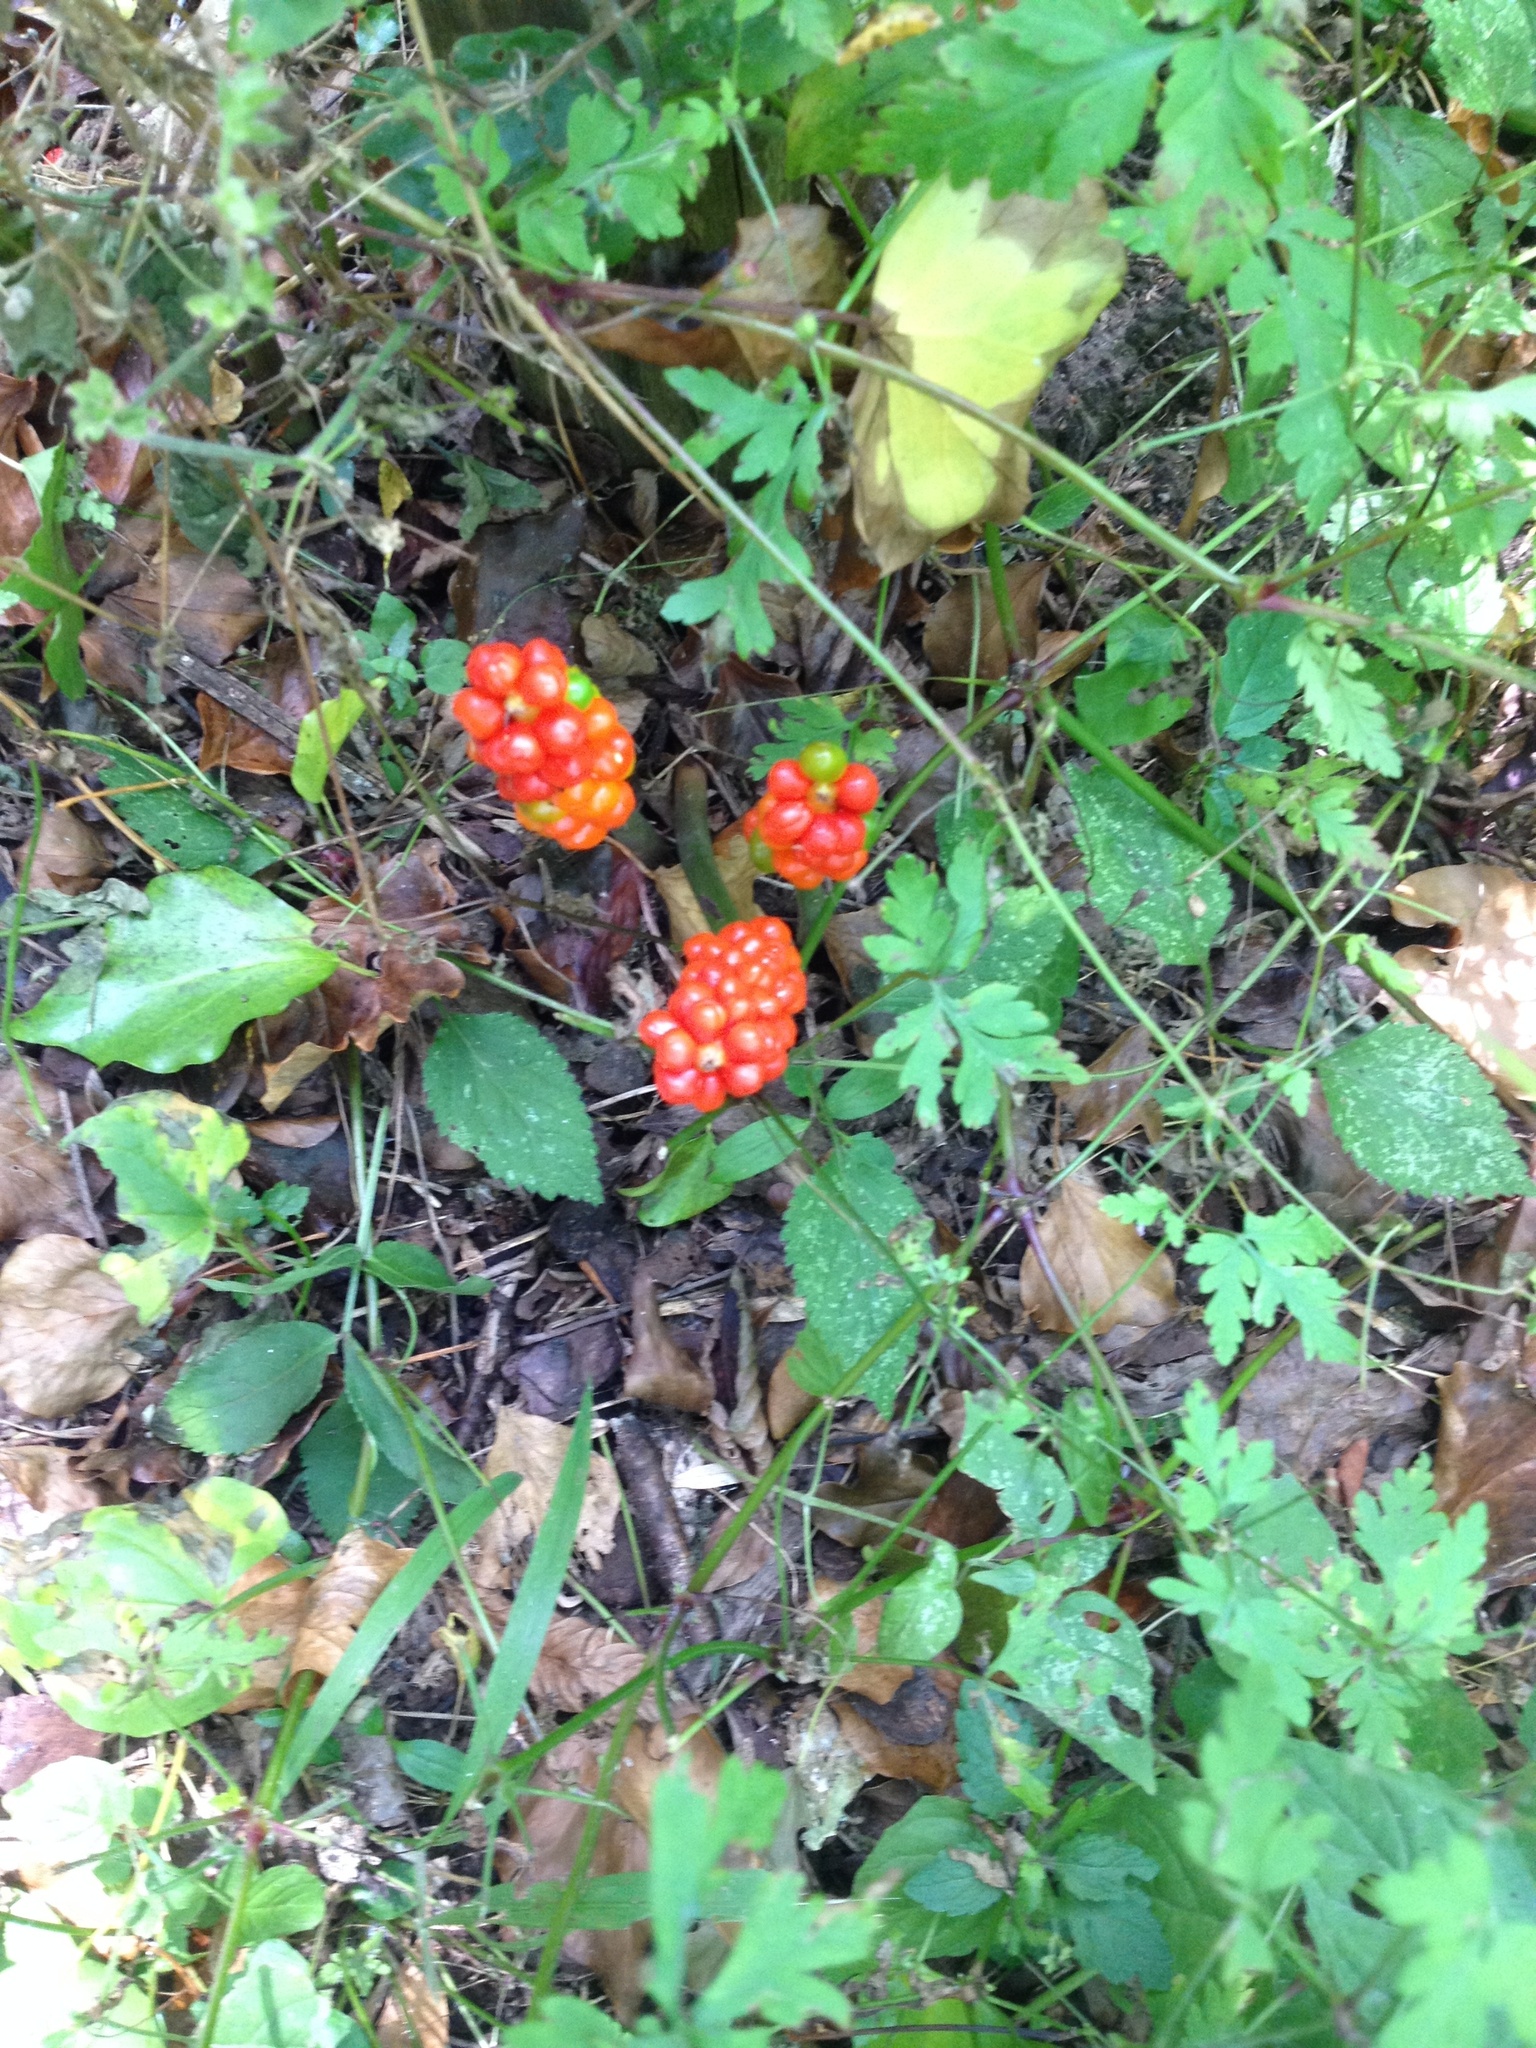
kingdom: Plantae
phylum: Tracheophyta
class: Liliopsida
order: Alismatales
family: Araceae
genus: Arum
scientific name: Arum maculatum
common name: Lords-and-ladies
